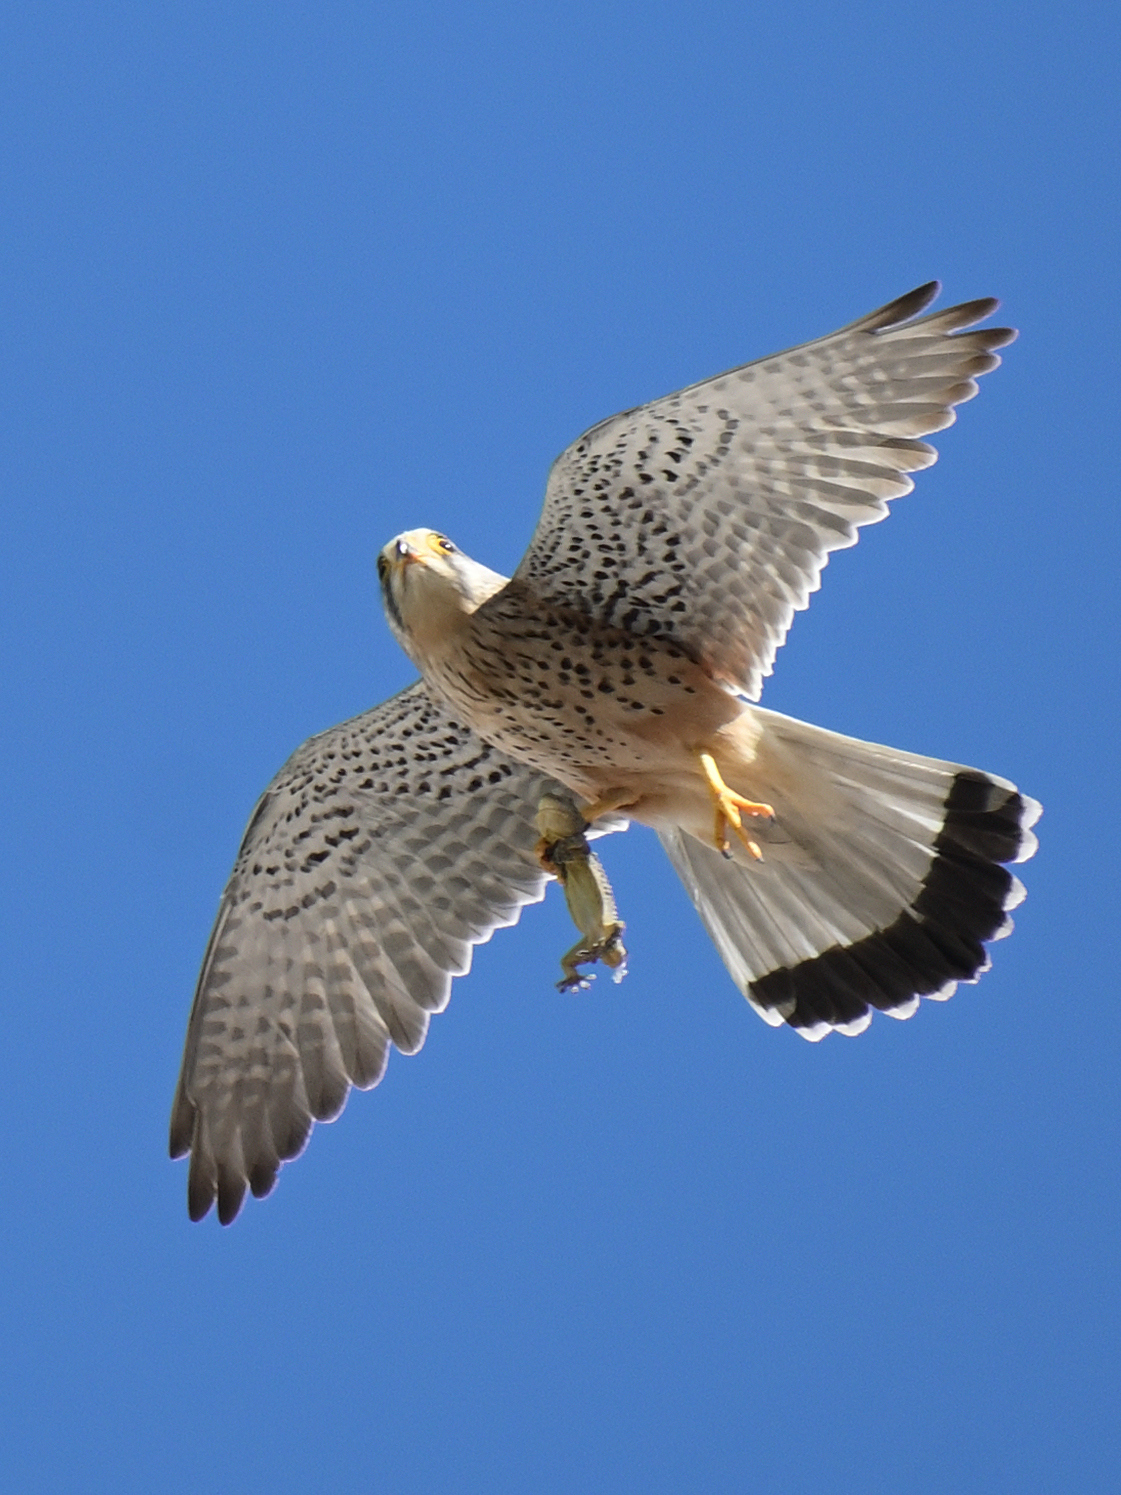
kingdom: Animalia
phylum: Chordata
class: Squamata
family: Phyllodactylidae
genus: Tarentola
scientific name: Tarentola mauritanica
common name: Moorish gecko
